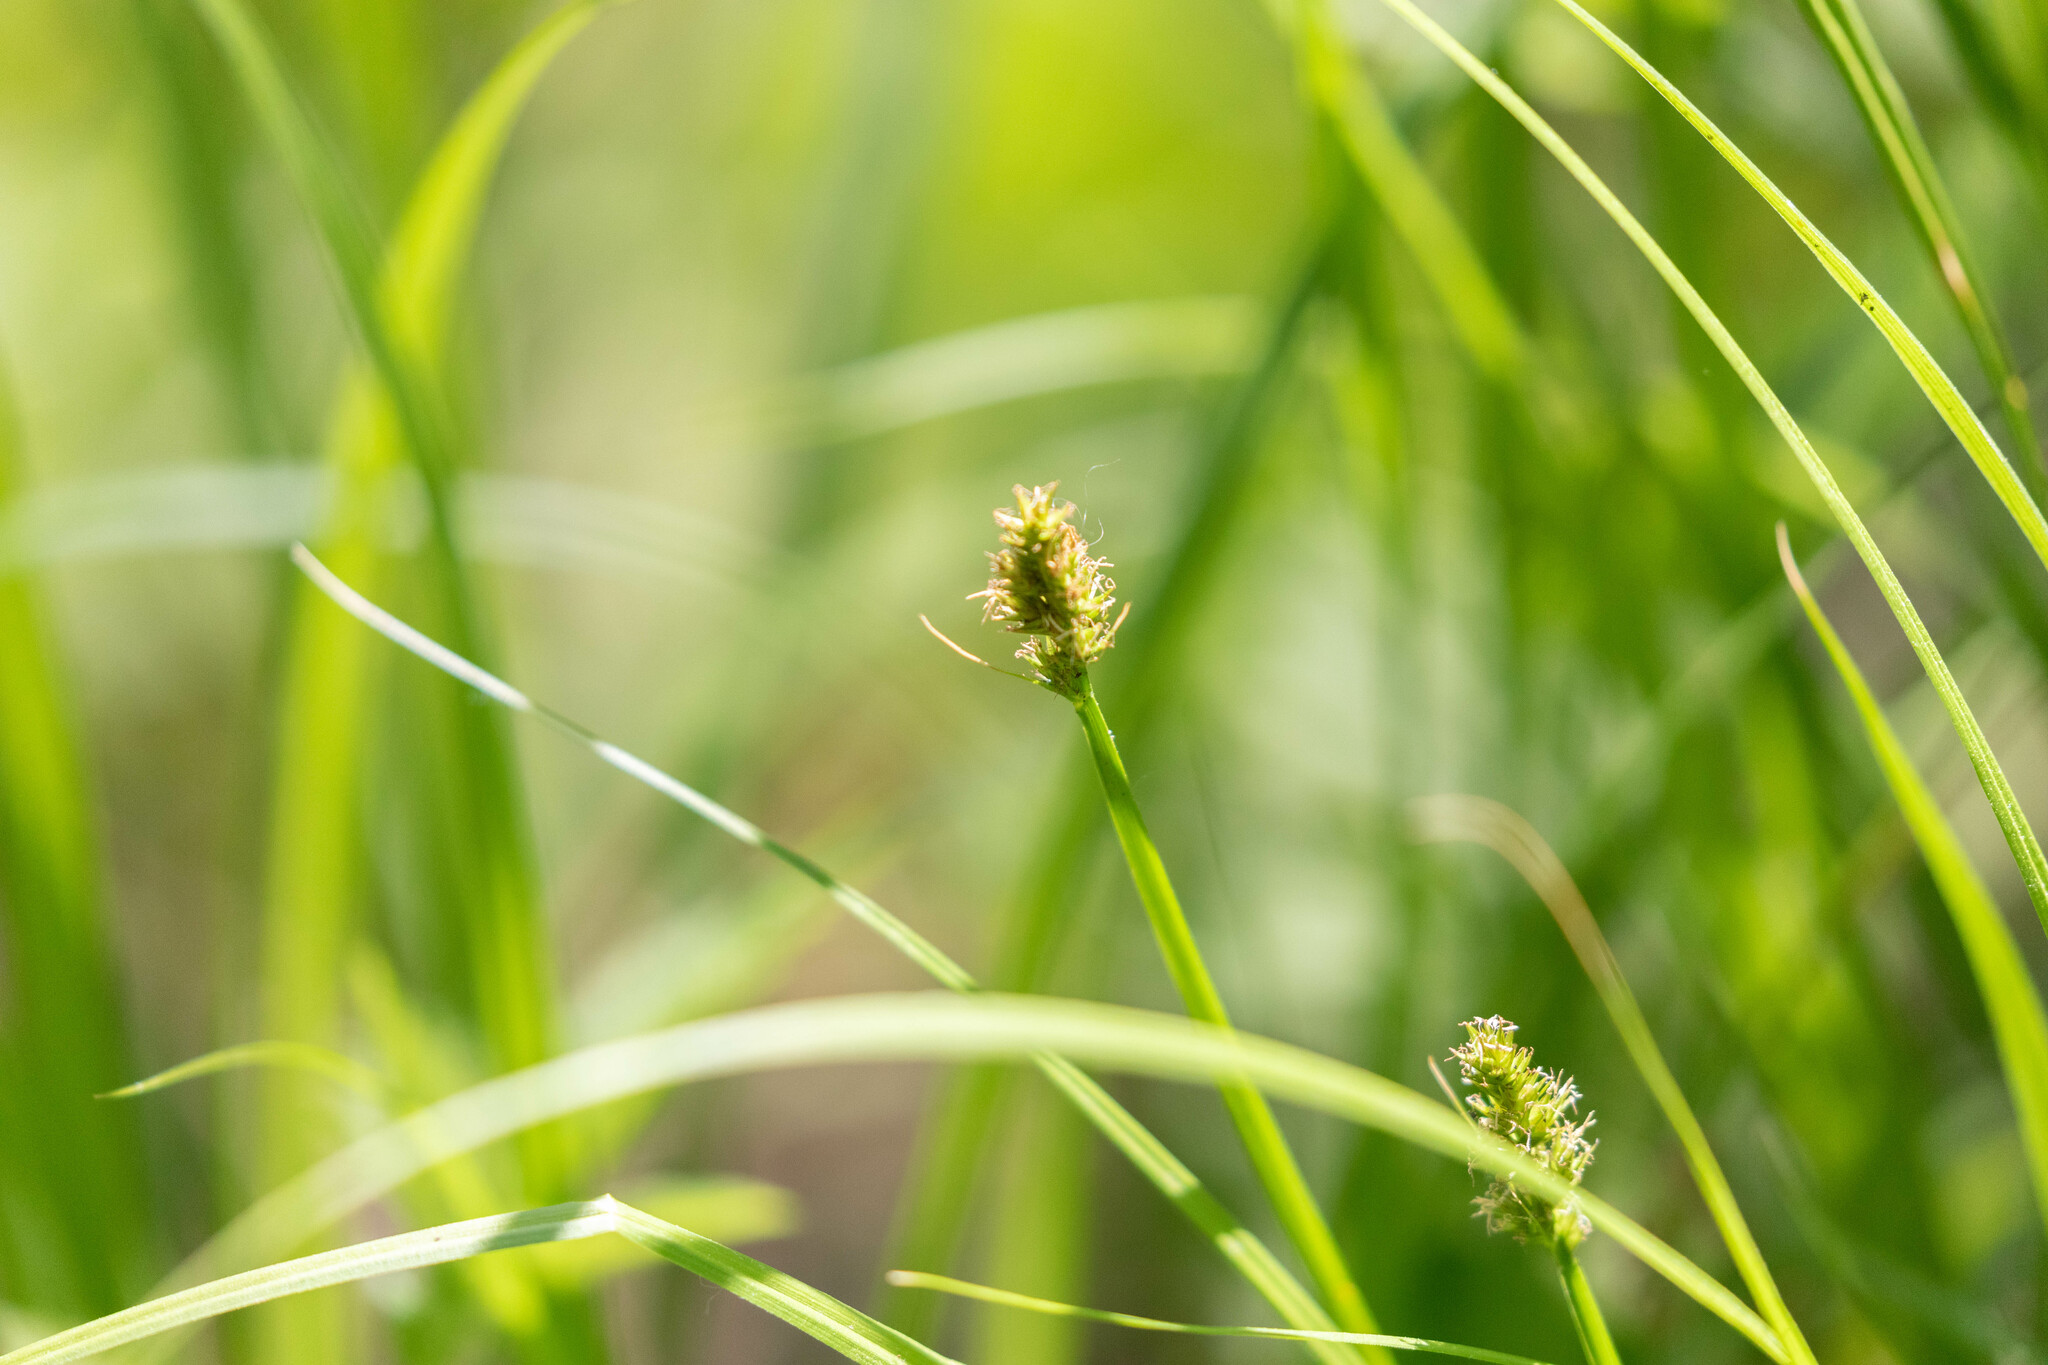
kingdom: Plantae
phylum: Tracheophyta
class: Liliopsida
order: Poales
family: Cyperaceae
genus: Carex
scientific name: Carex cephalophora
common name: Oval-headed sedge
